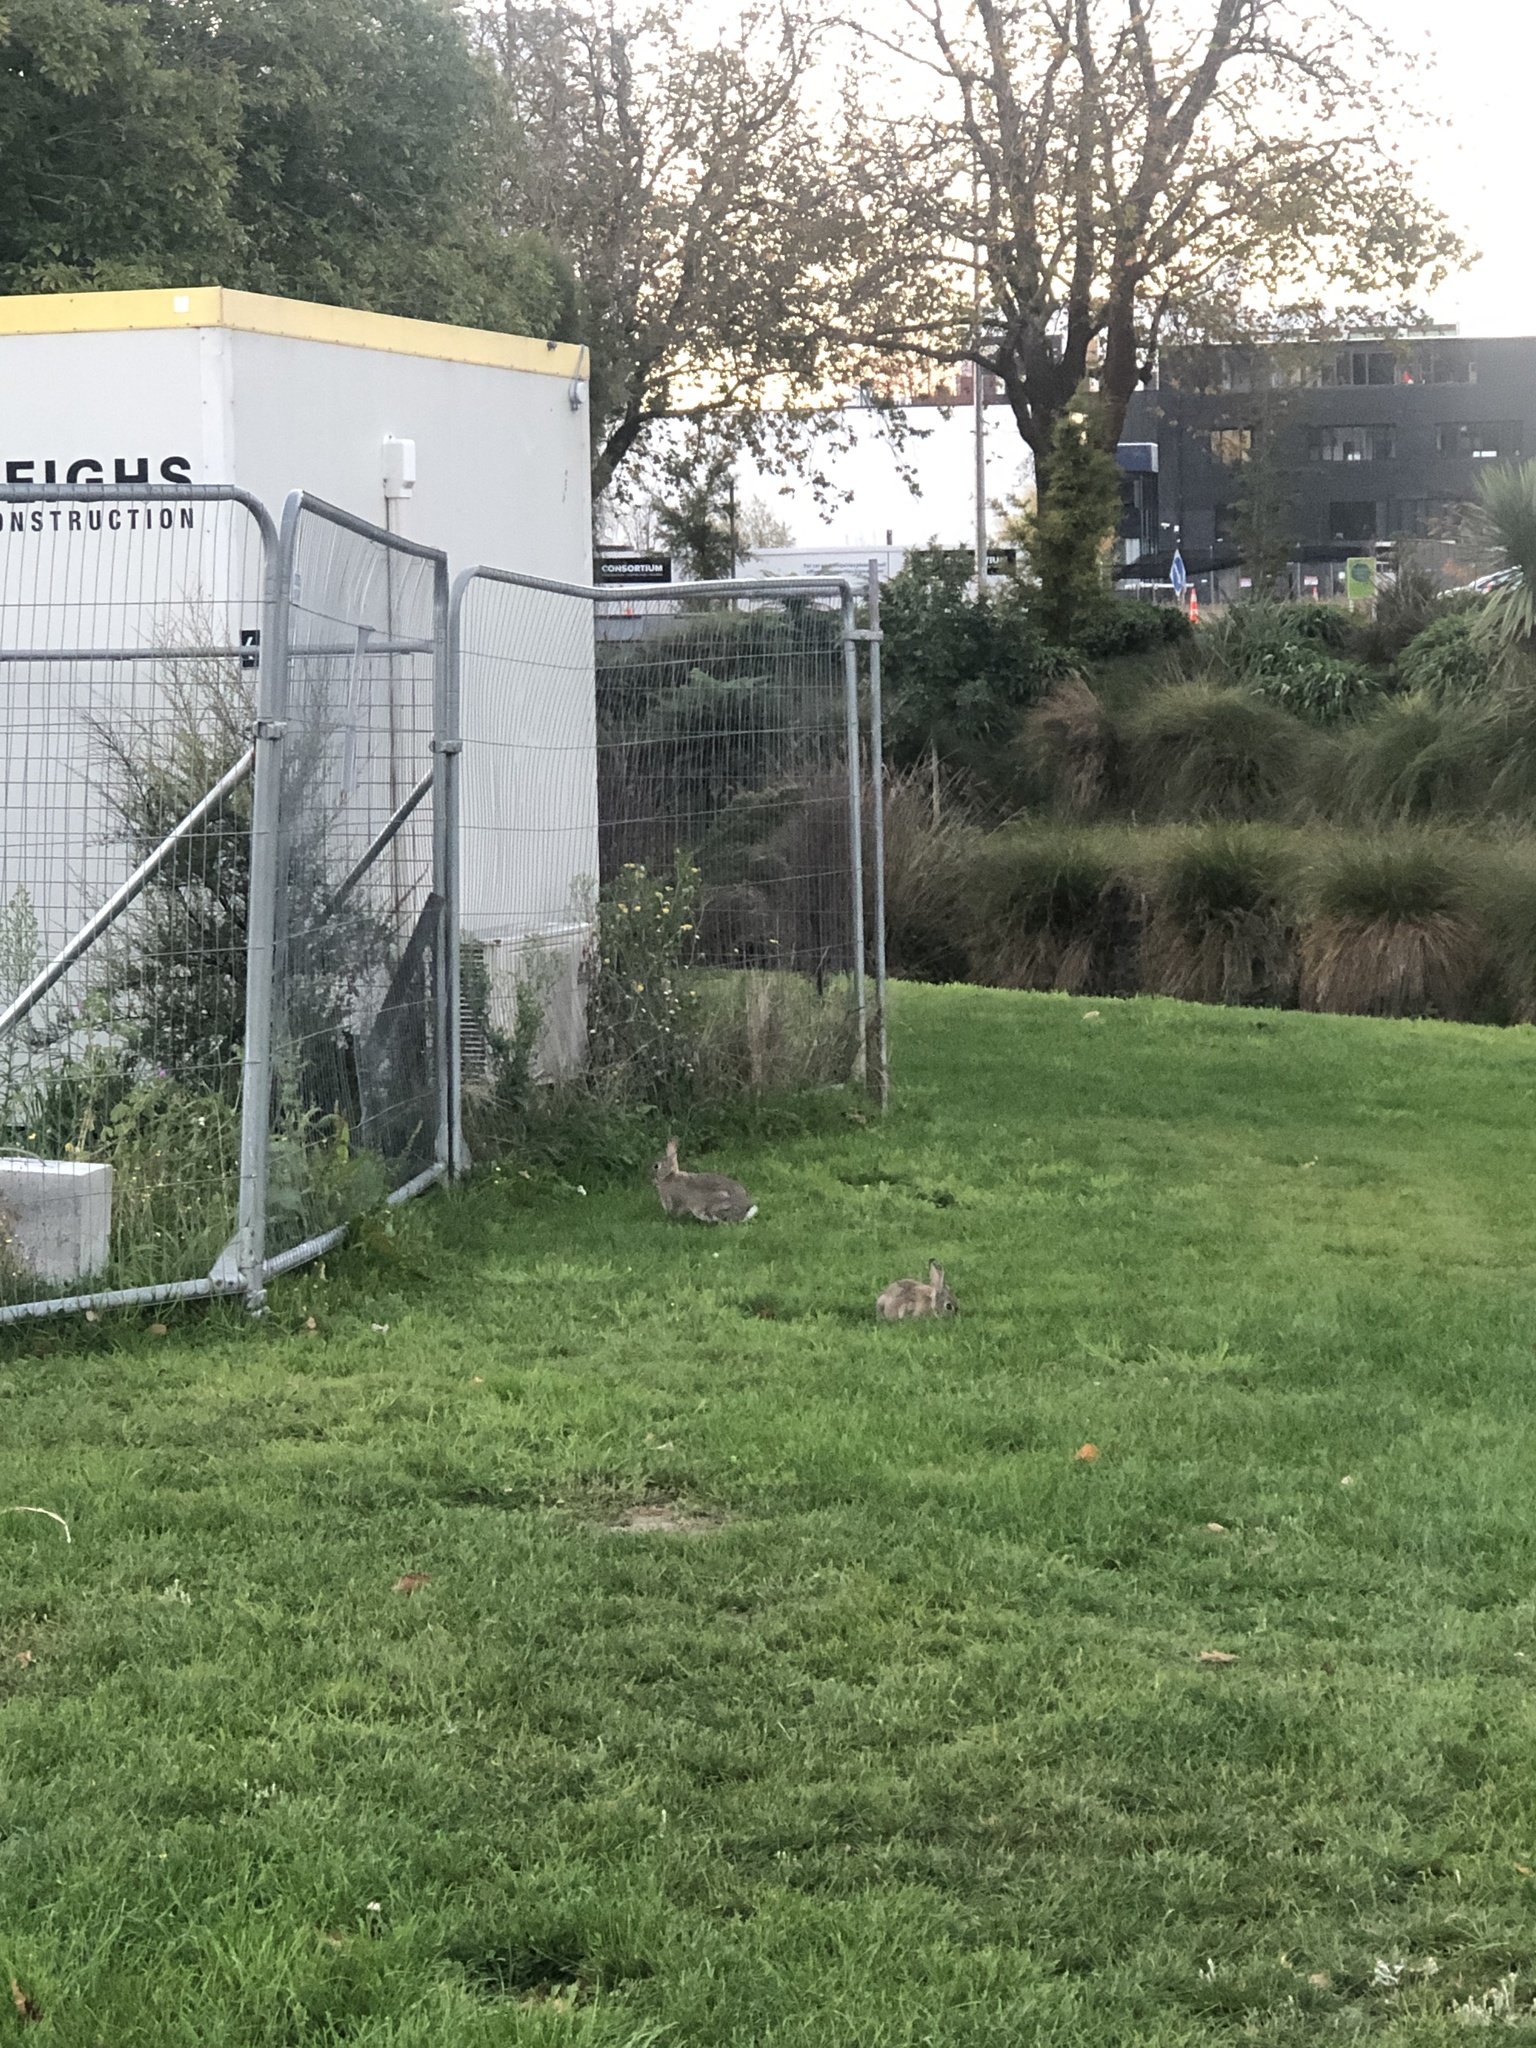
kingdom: Animalia
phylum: Chordata
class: Mammalia
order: Lagomorpha
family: Leporidae
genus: Oryctolagus
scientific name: Oryctolagus cuniculus
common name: European rabbit
